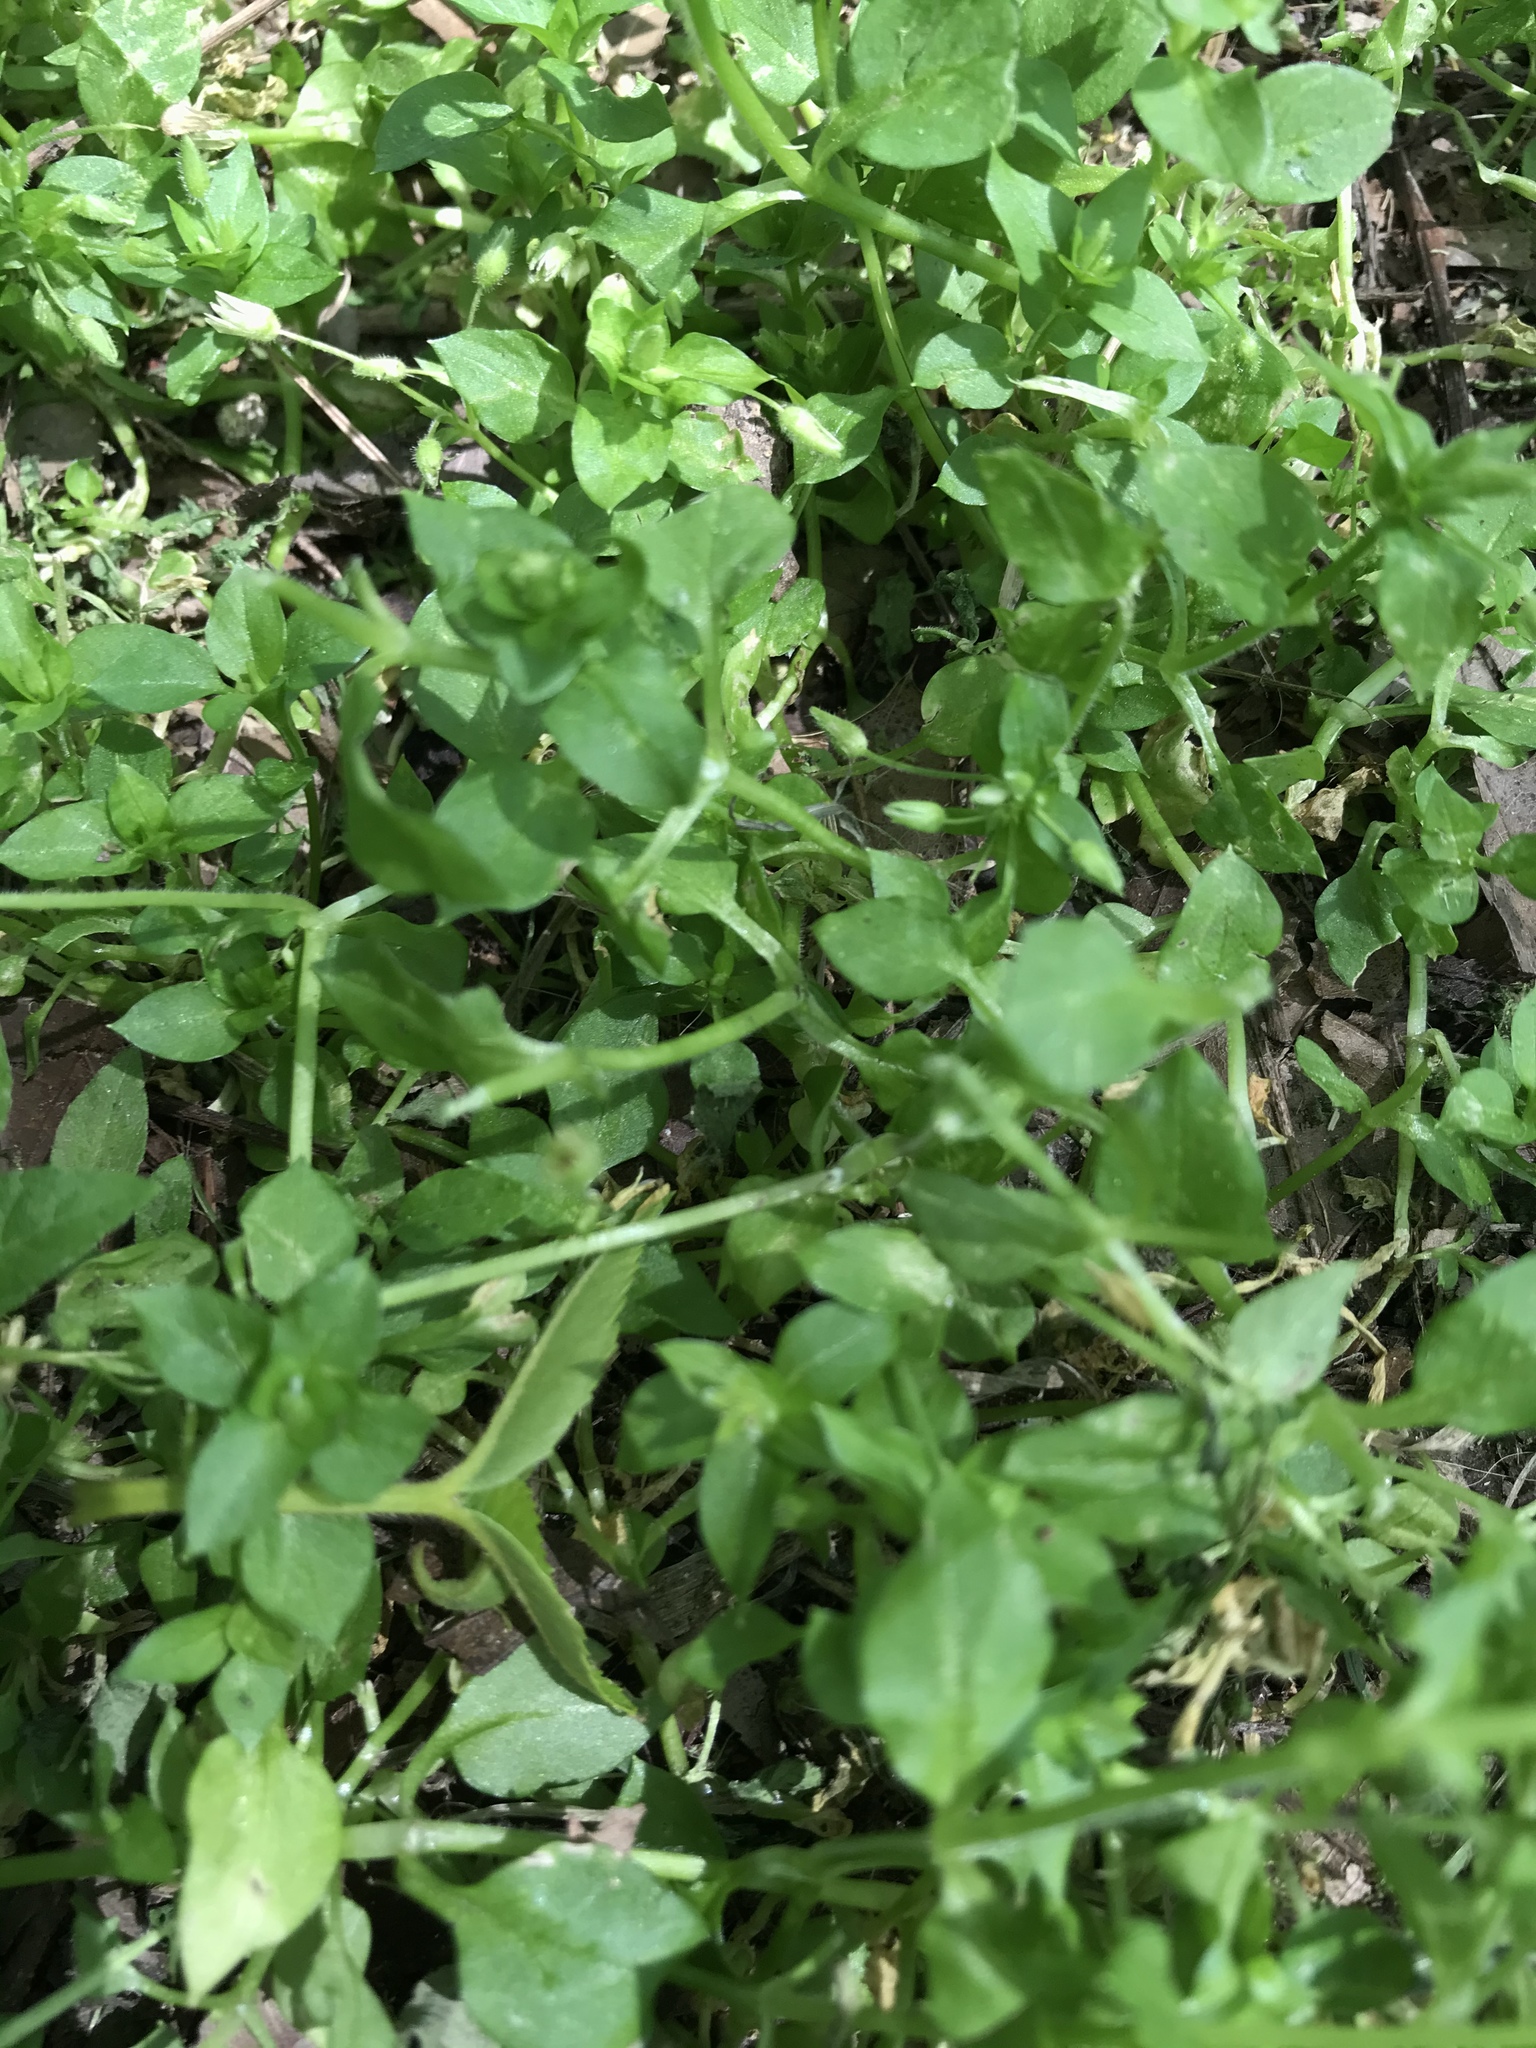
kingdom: Plantae
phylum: Tracheophyta
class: Magnoliopsida
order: Caryophyllales
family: Caryophyllaceae
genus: Stellaria
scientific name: Stellaria media
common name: Common chickweed
